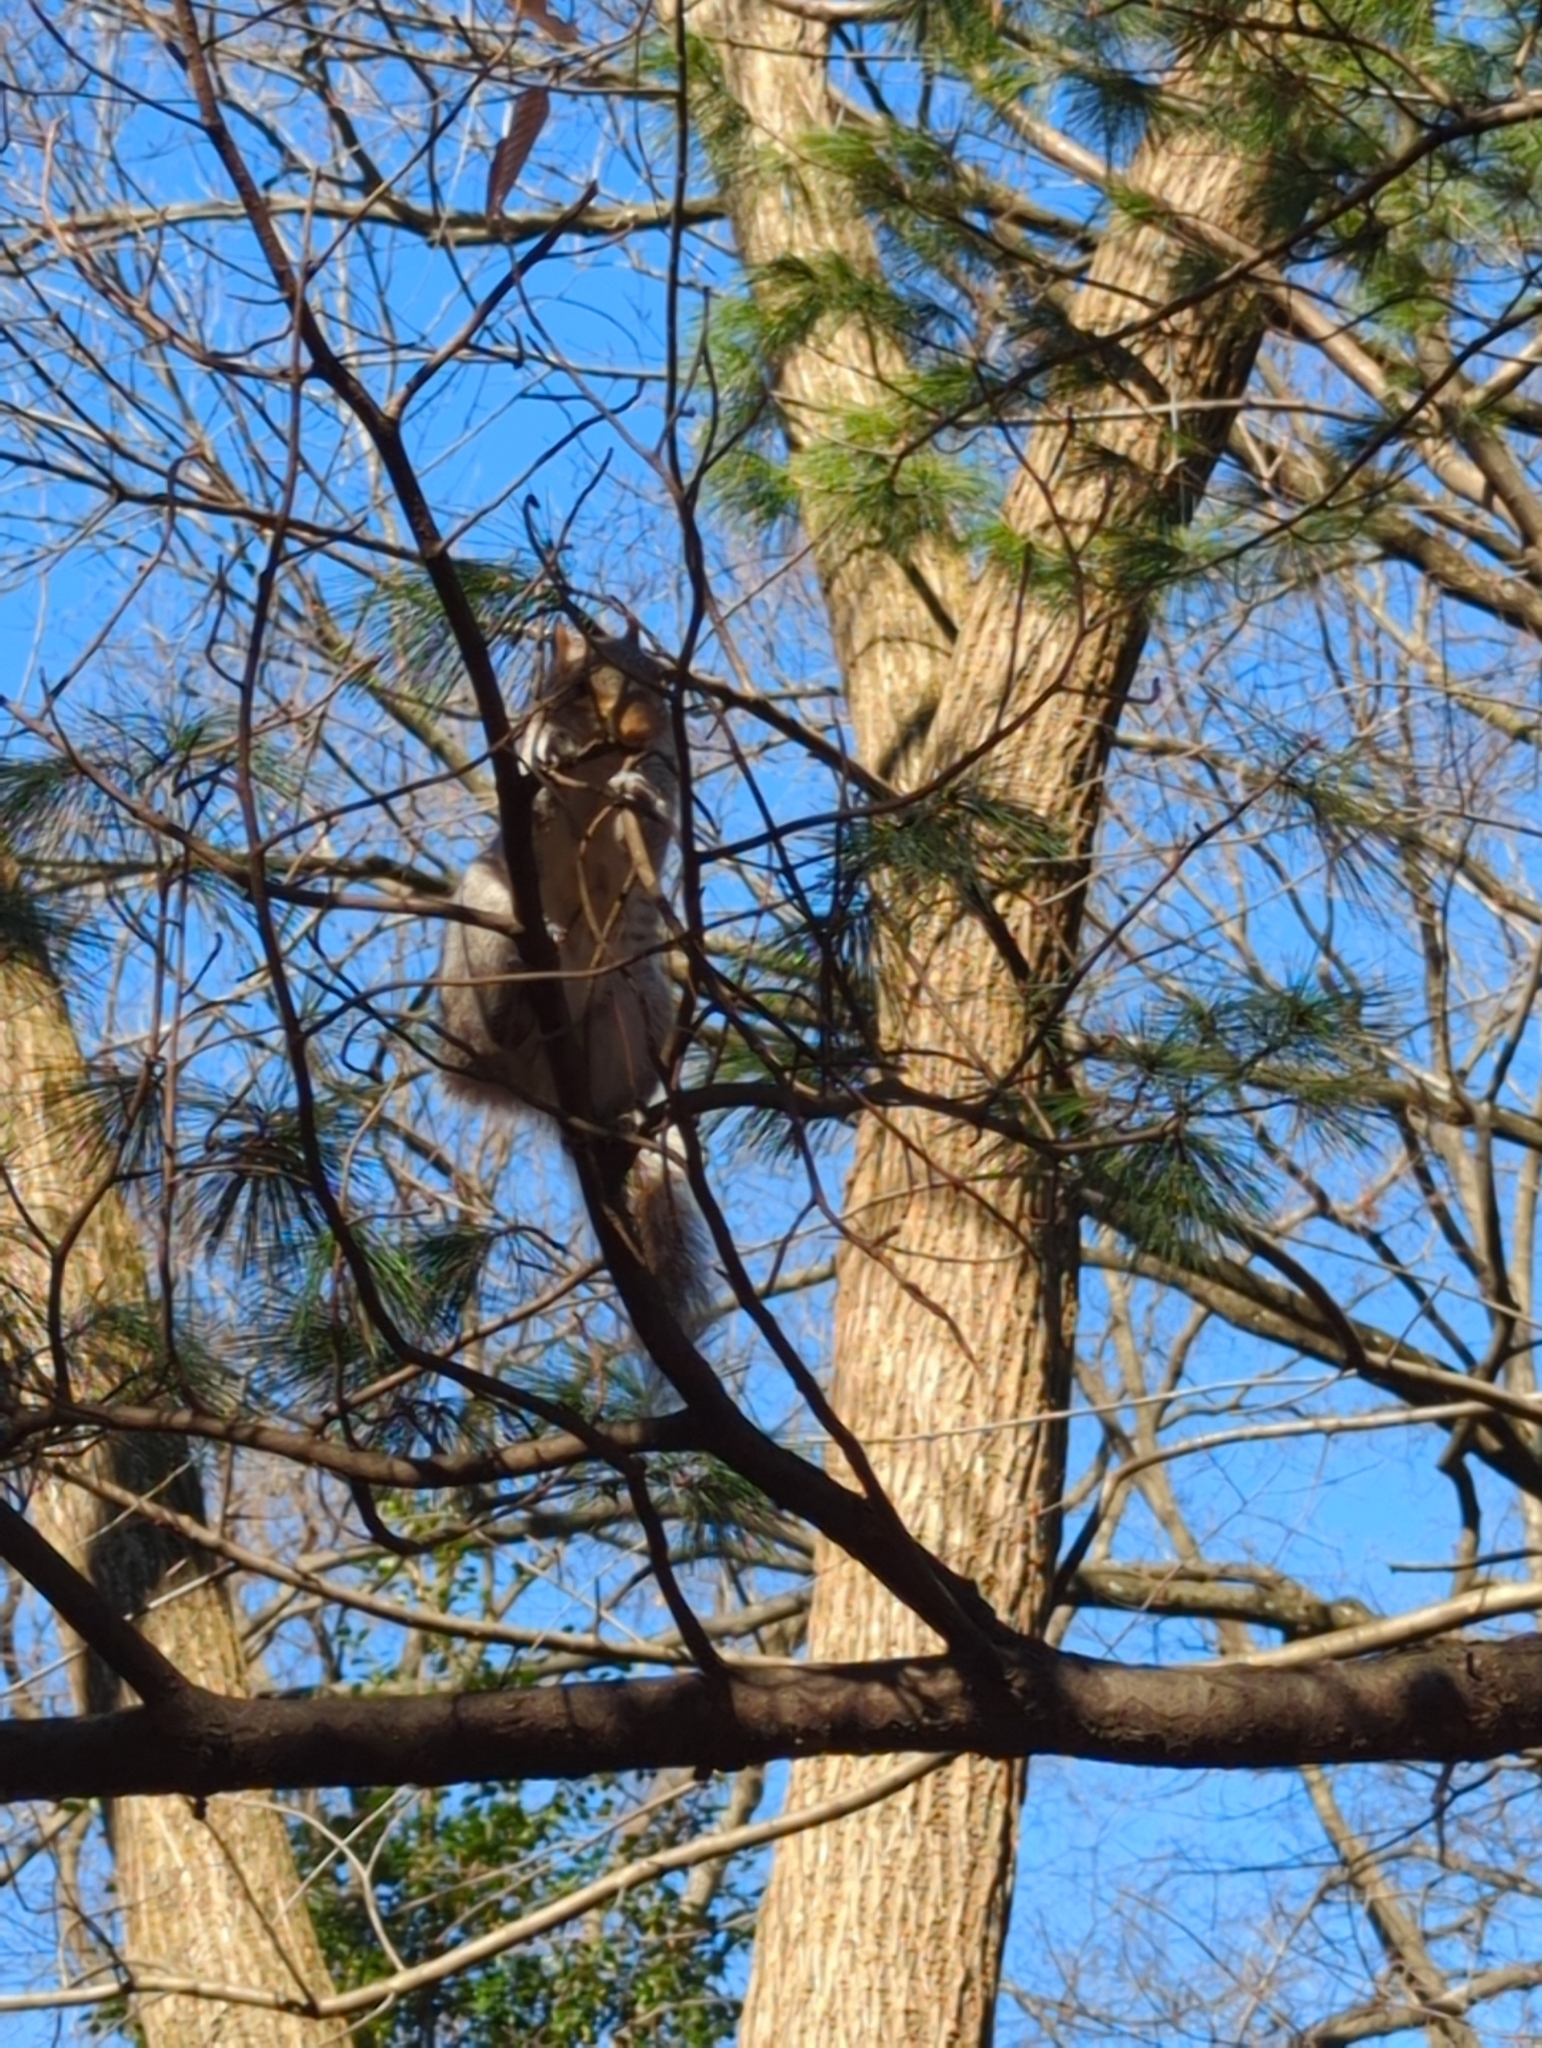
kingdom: Animalia
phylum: Chordata
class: Mammalia
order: Rodentia
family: Sciuridae
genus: Sciurus
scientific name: Sciurus carolinensis
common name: Eastern gray squirrel
